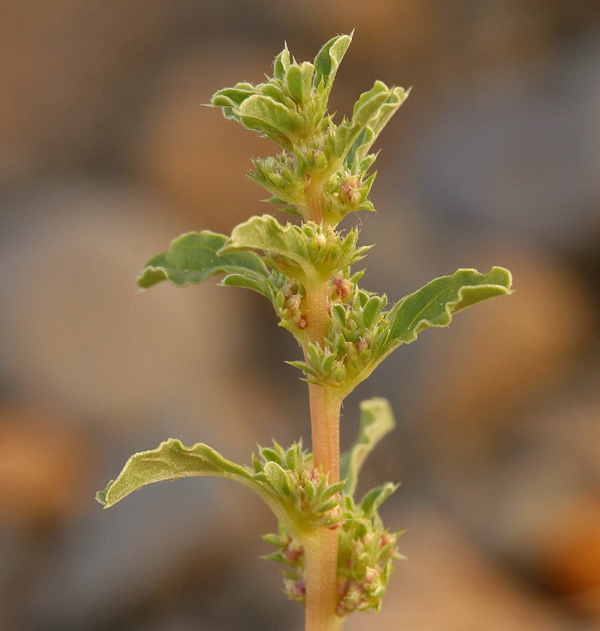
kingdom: Plantae
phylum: Tracheophyta
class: Magnoliopsida
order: Caryophyllales
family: Amaranthaceae
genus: Amaranthus
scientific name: Amaranthus albus
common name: White pigweed
